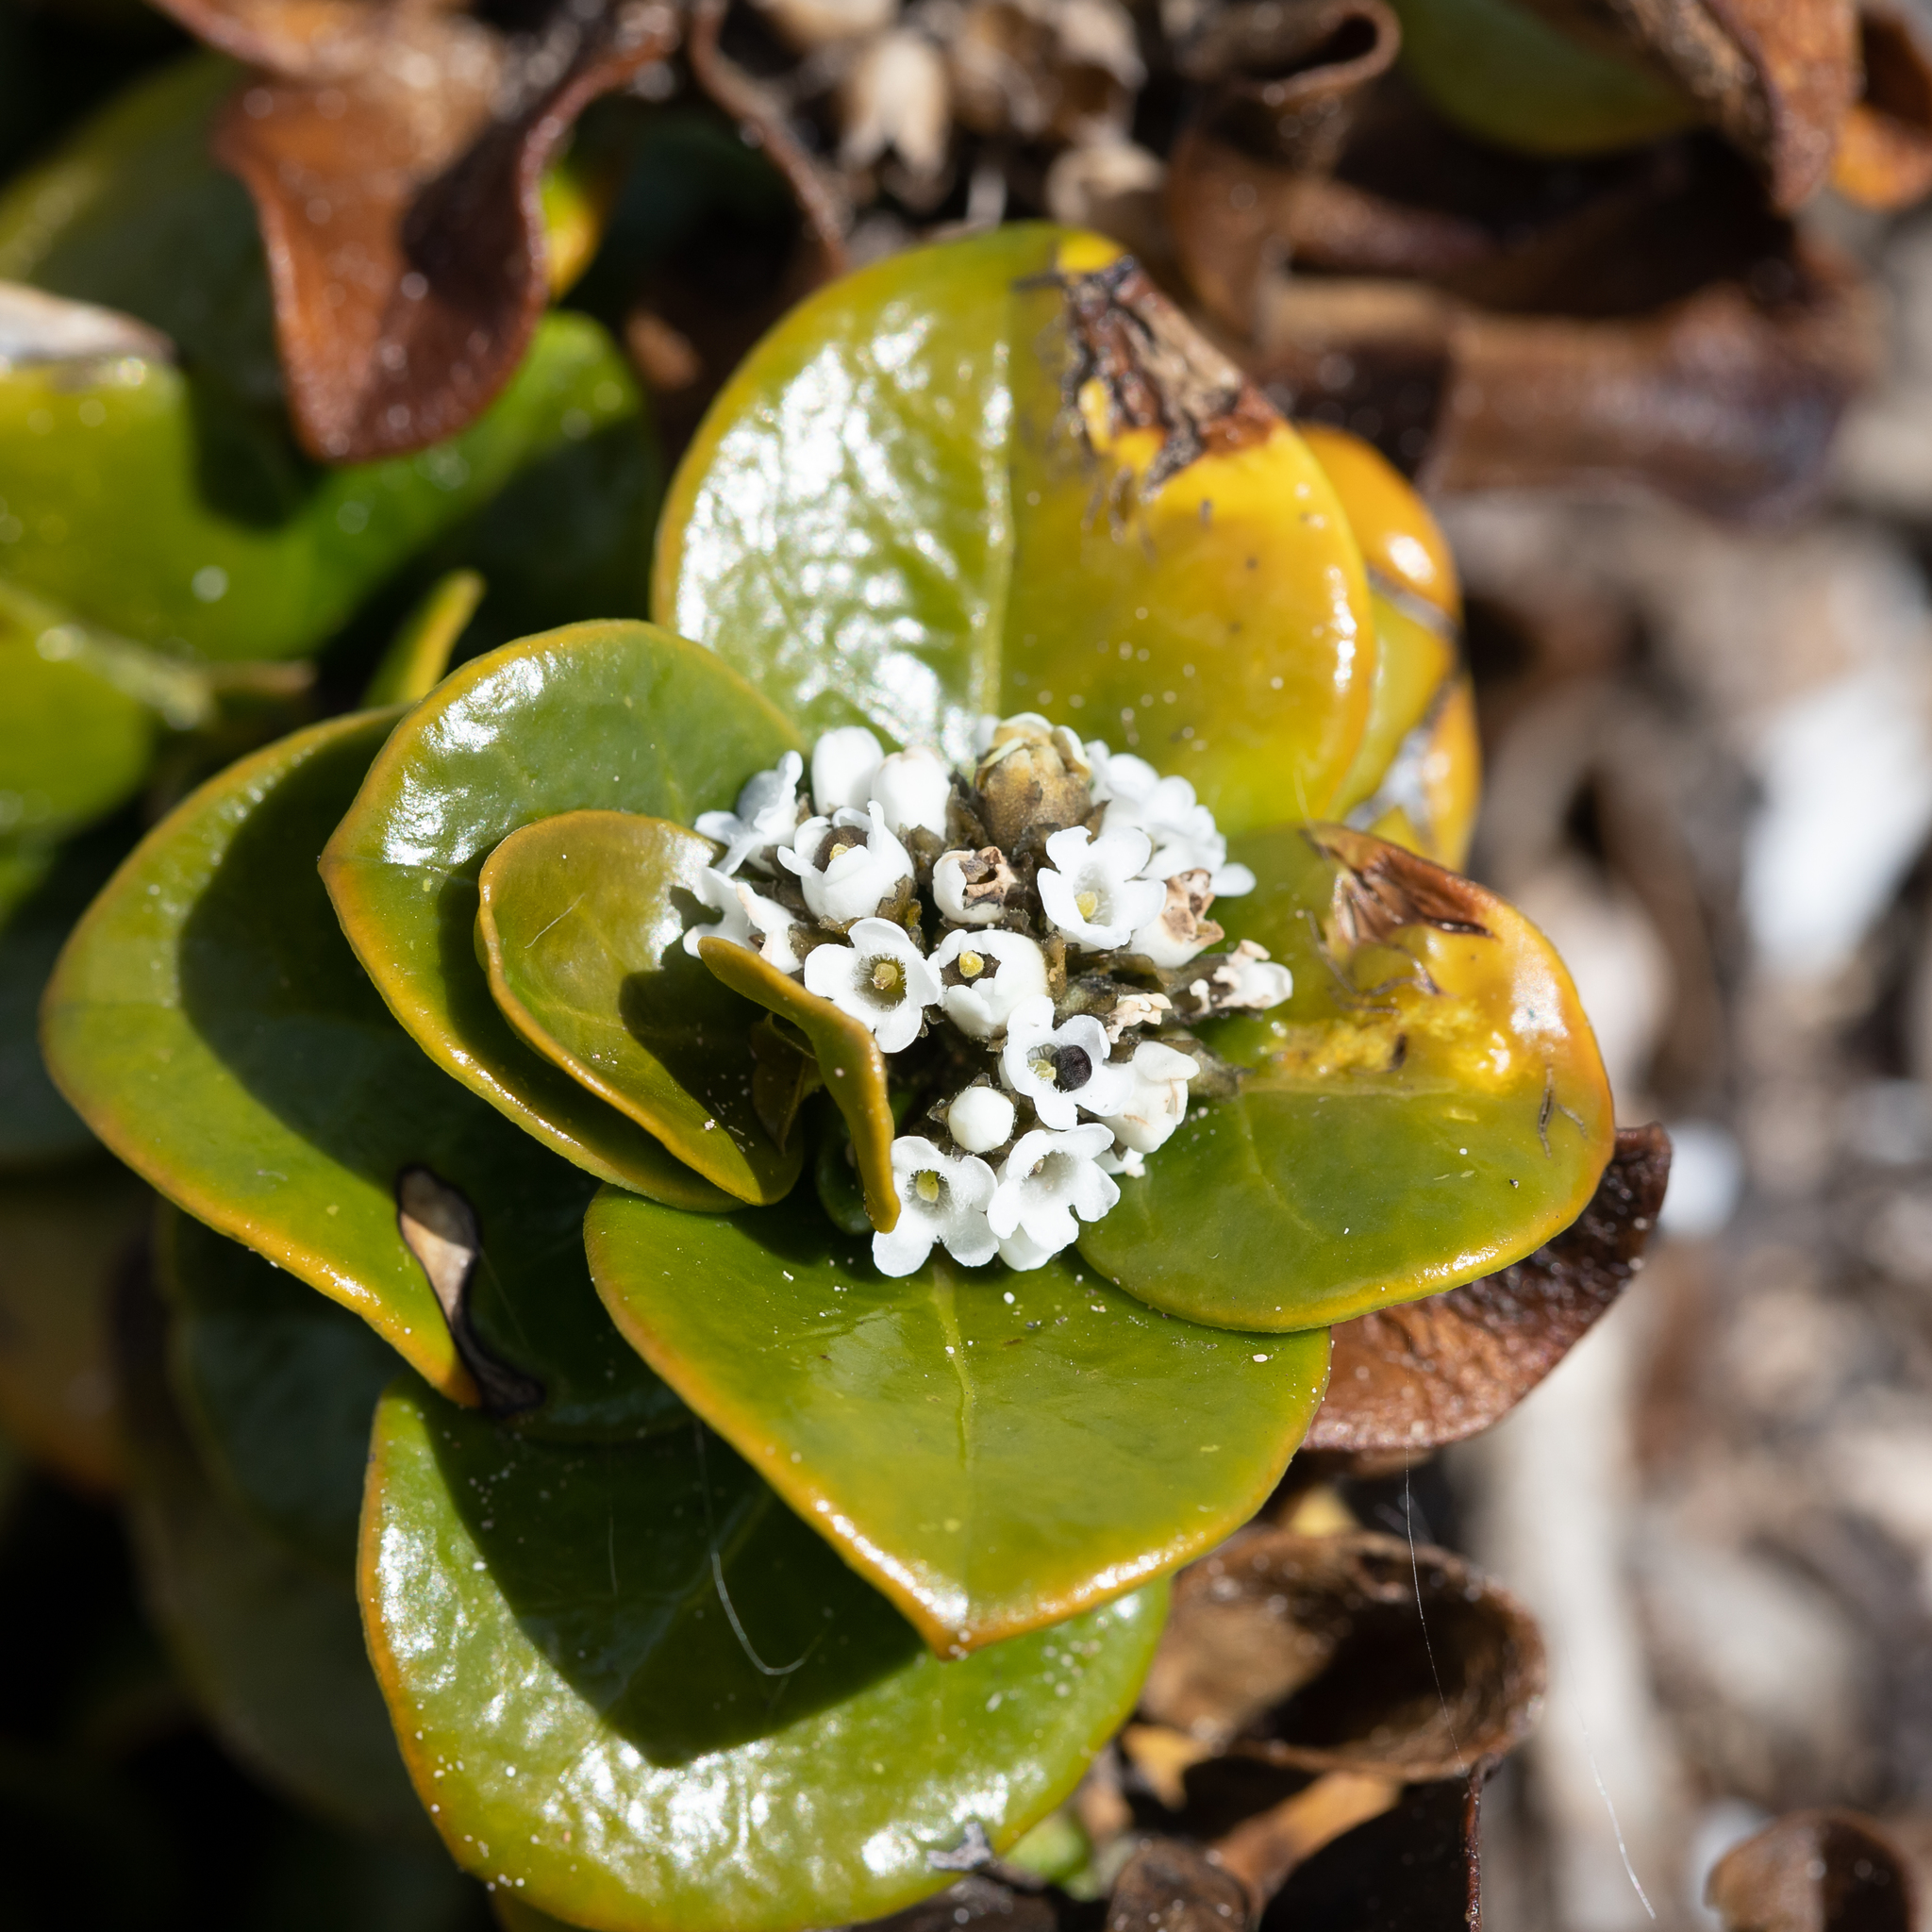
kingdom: Plantae
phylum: Tracheophyta
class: Magnoliopsida
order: Gentianales
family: Loganiaceae
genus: Logania
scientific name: Logania crassifolia
